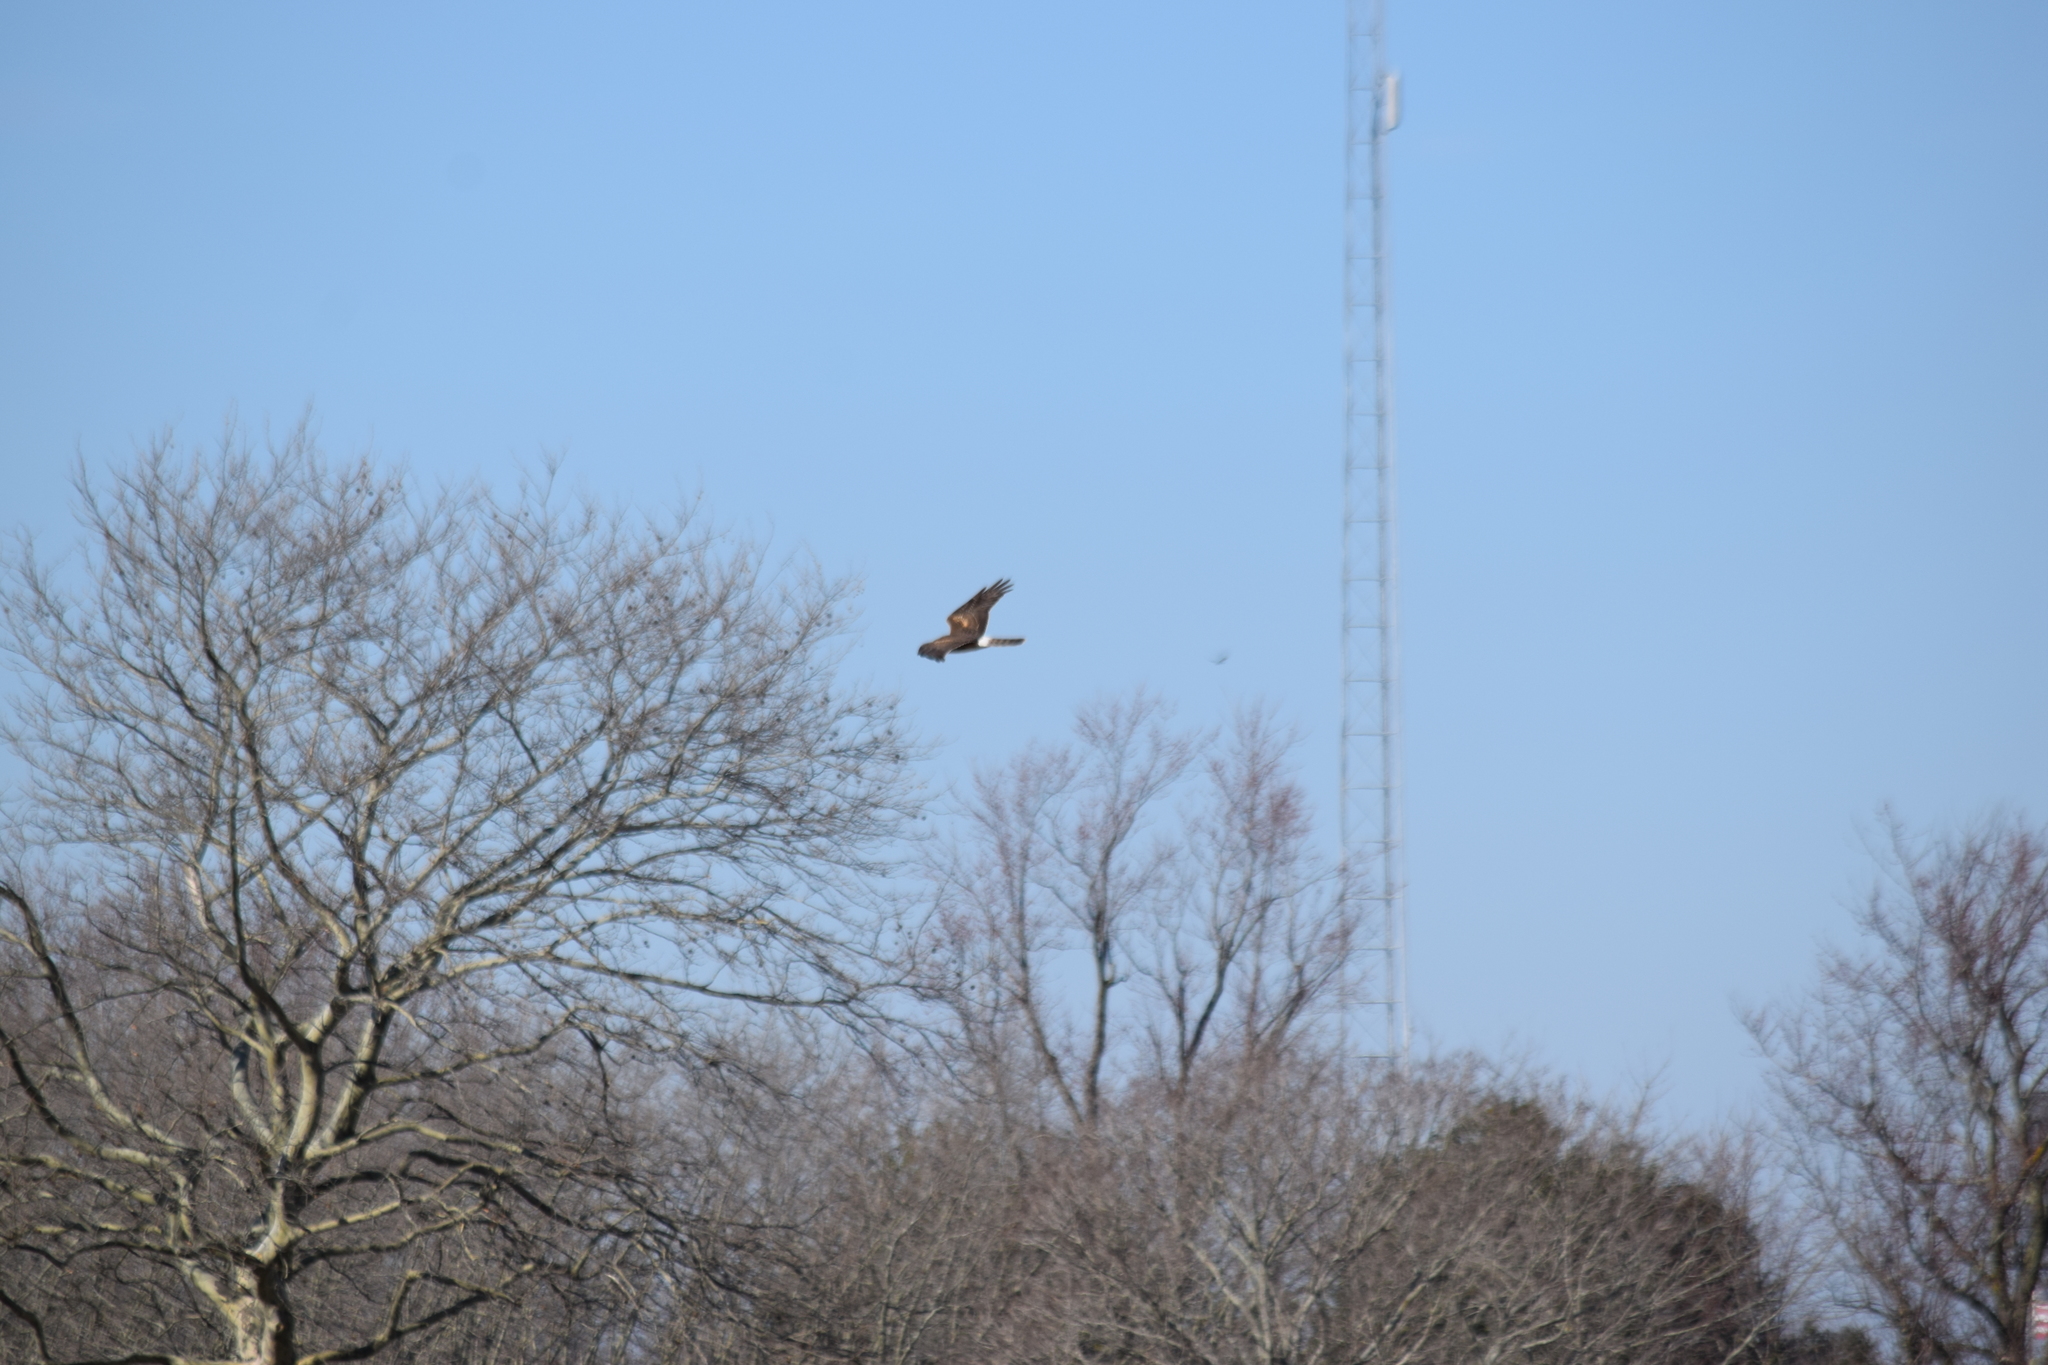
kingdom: Animalia
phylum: Chordata
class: Aves
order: Accipitriformes
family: Accipitridae
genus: Circus
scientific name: Circus cyaneus
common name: Hen harrier
